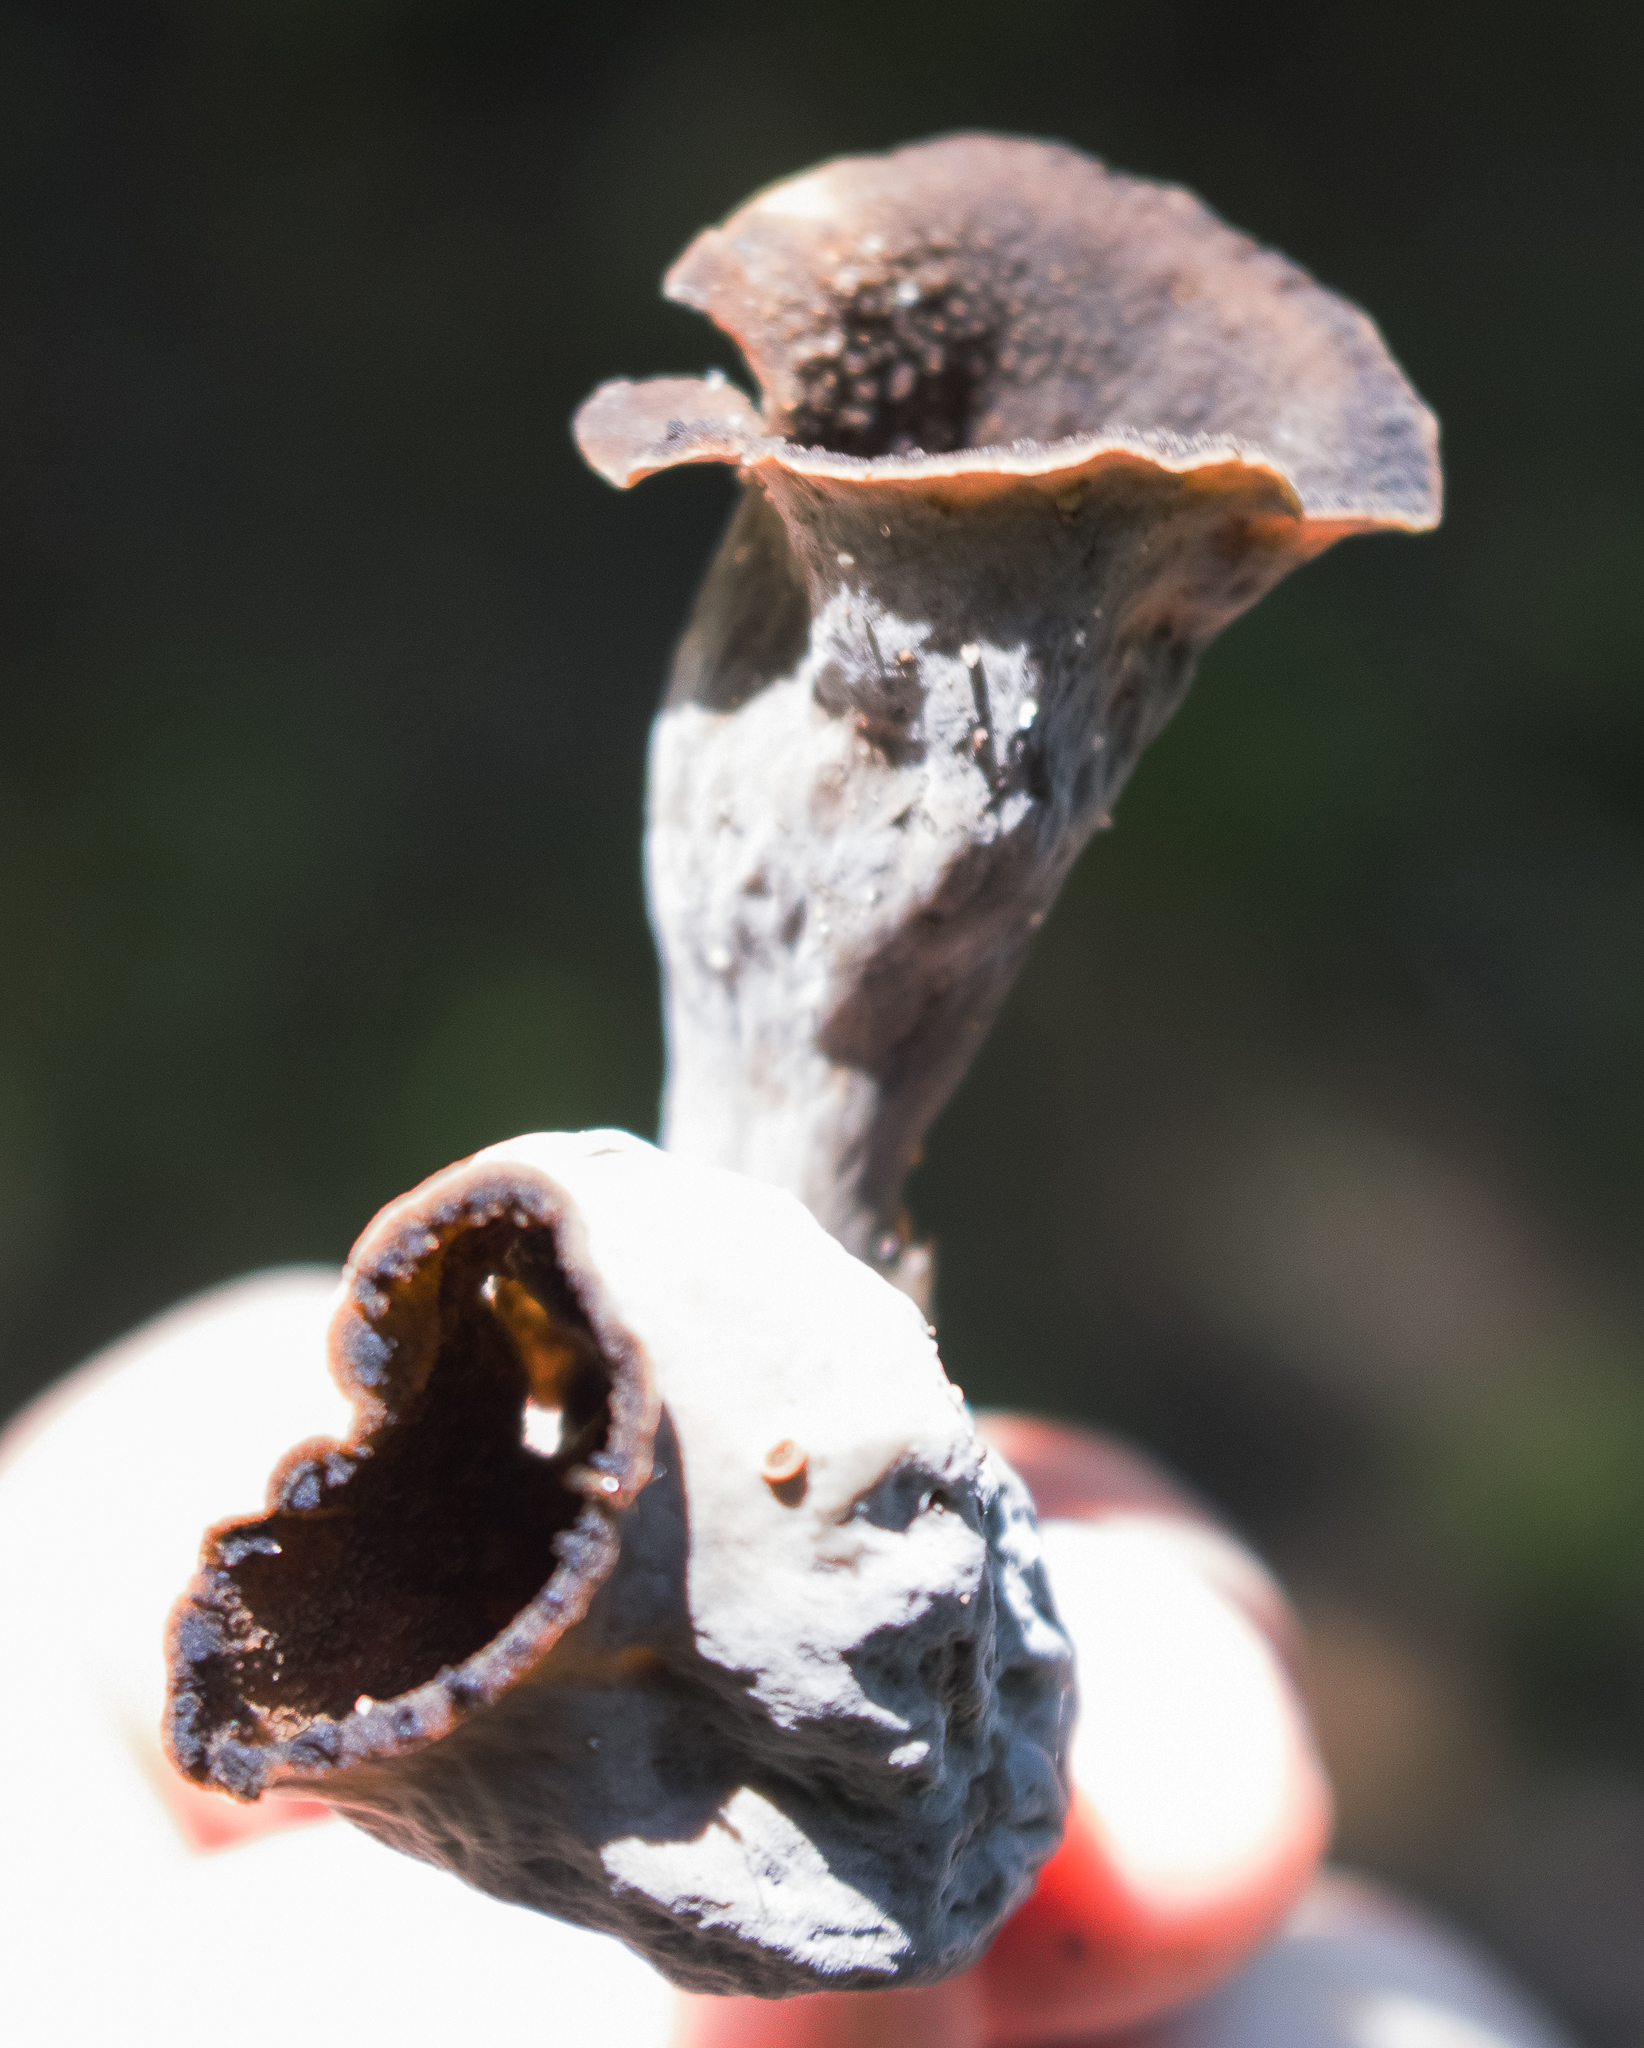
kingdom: Fungi
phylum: Basidiomycota
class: Agaricomycetes
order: Cantharellales
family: Hydnaceae
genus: Craterellus
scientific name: Craterellus cornucopioides
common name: Horn of plenty
